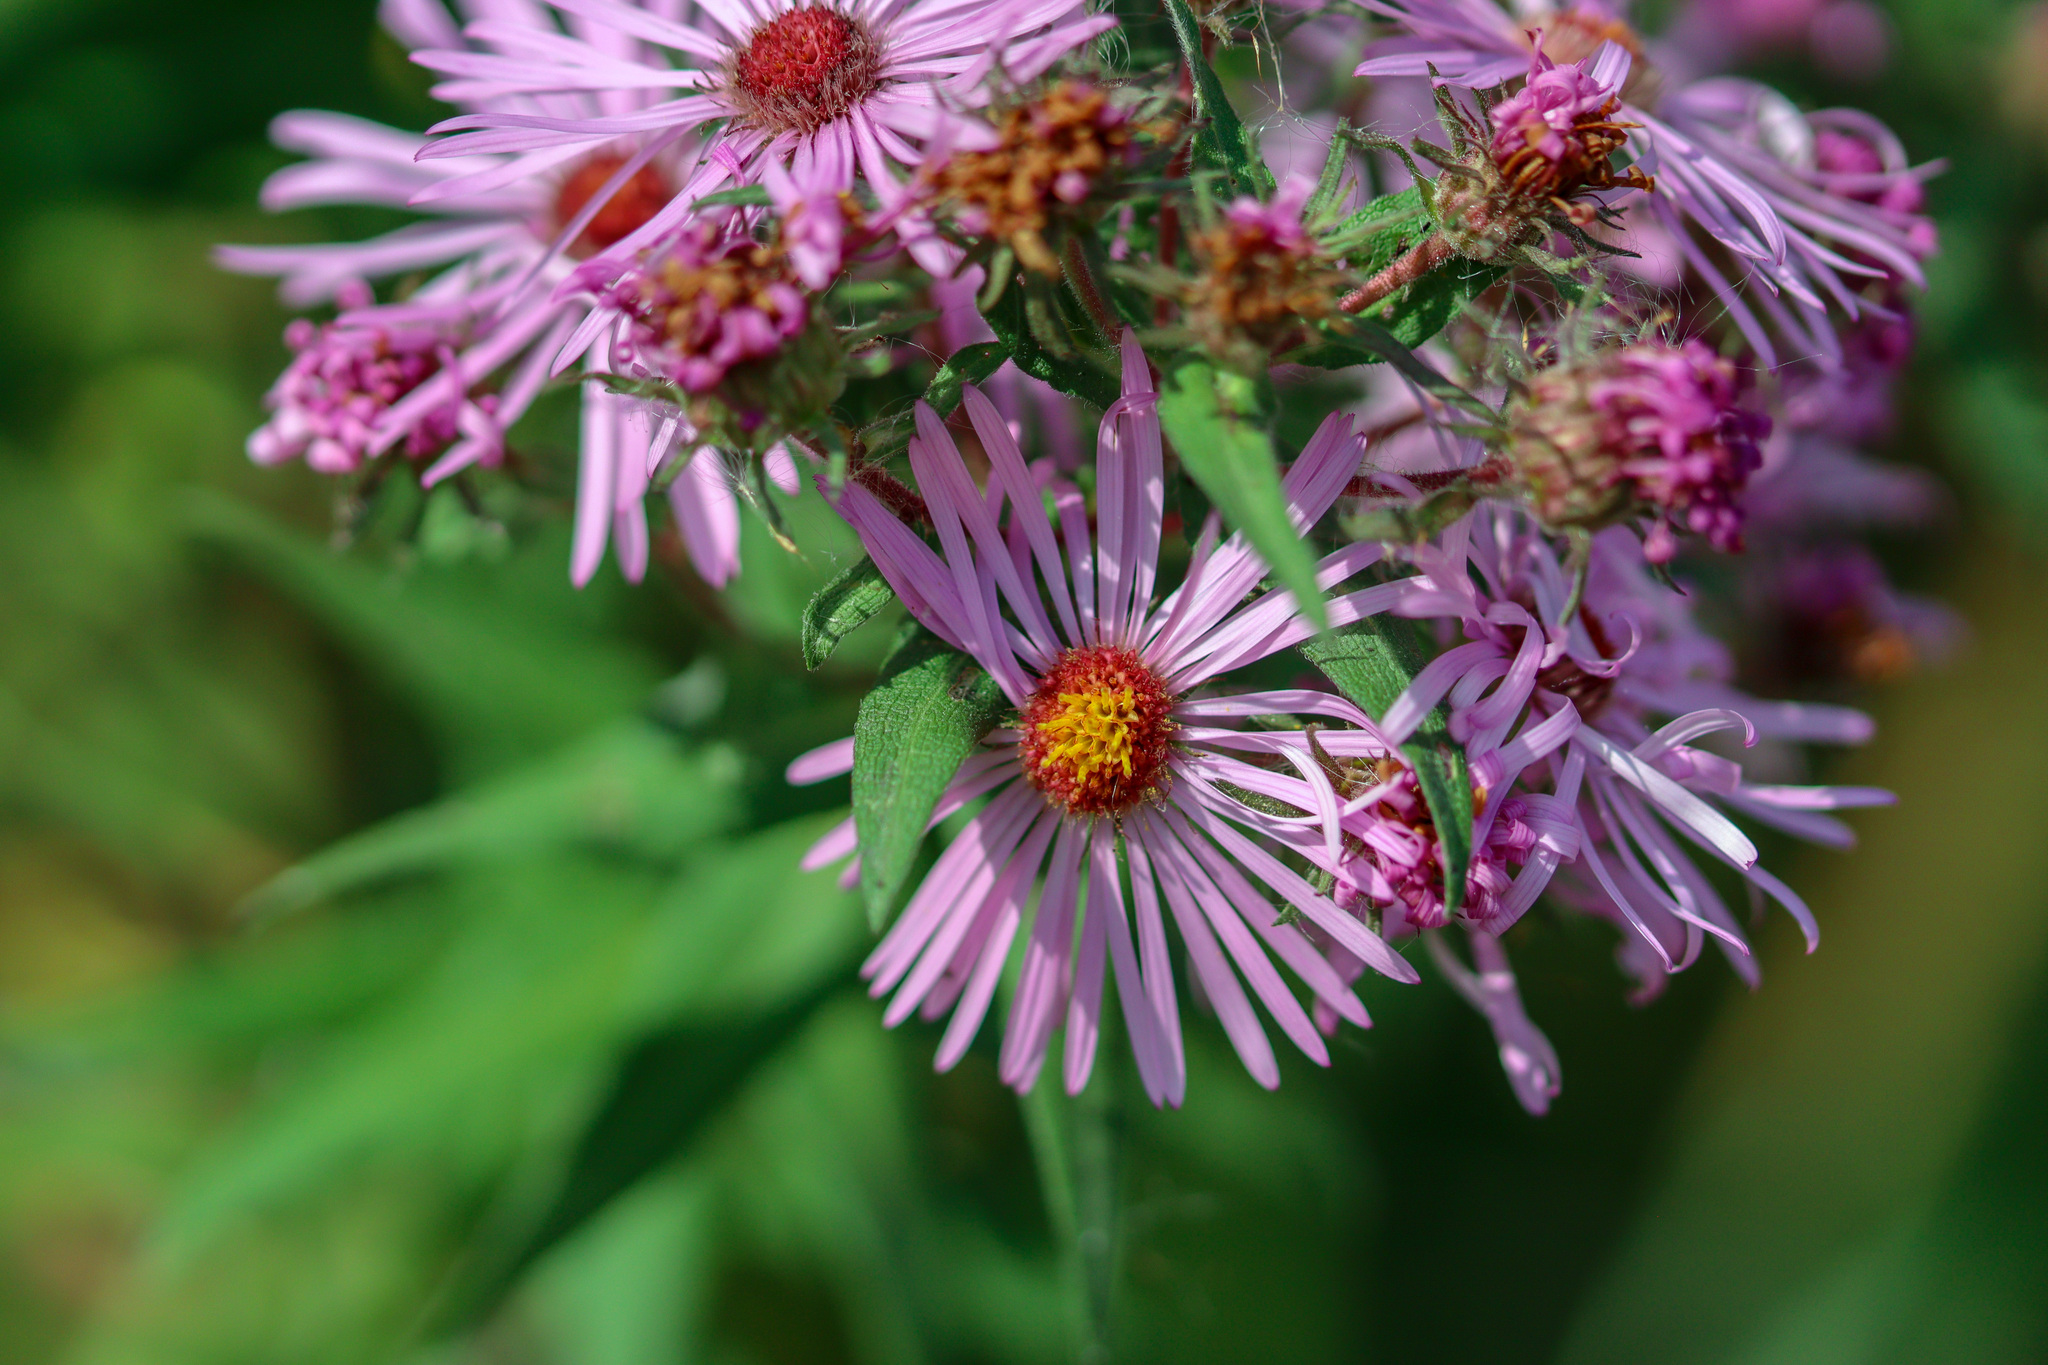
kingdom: Plantae
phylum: Tracheophyta
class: Magnoliopsida
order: Asterales
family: Asteraceae
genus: Symphyotrichum
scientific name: Symphyotrichum novae-angliae
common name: Michaelmas daisy
